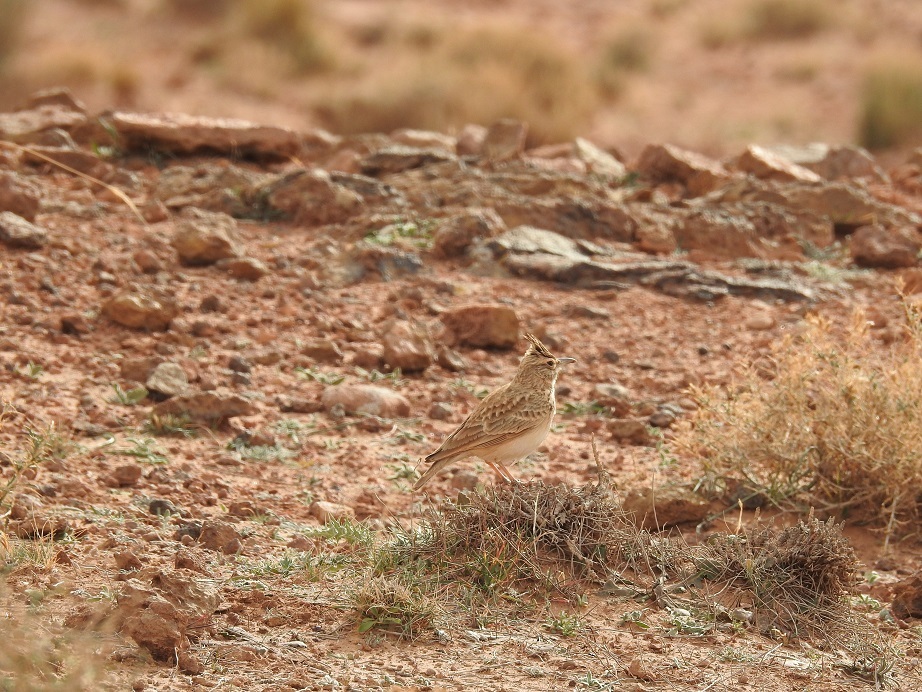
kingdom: Animalia
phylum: Chordata
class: Aves
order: Passeriformes
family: Alaudidae
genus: Galerida
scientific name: Galerida cristata
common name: Crested lark
